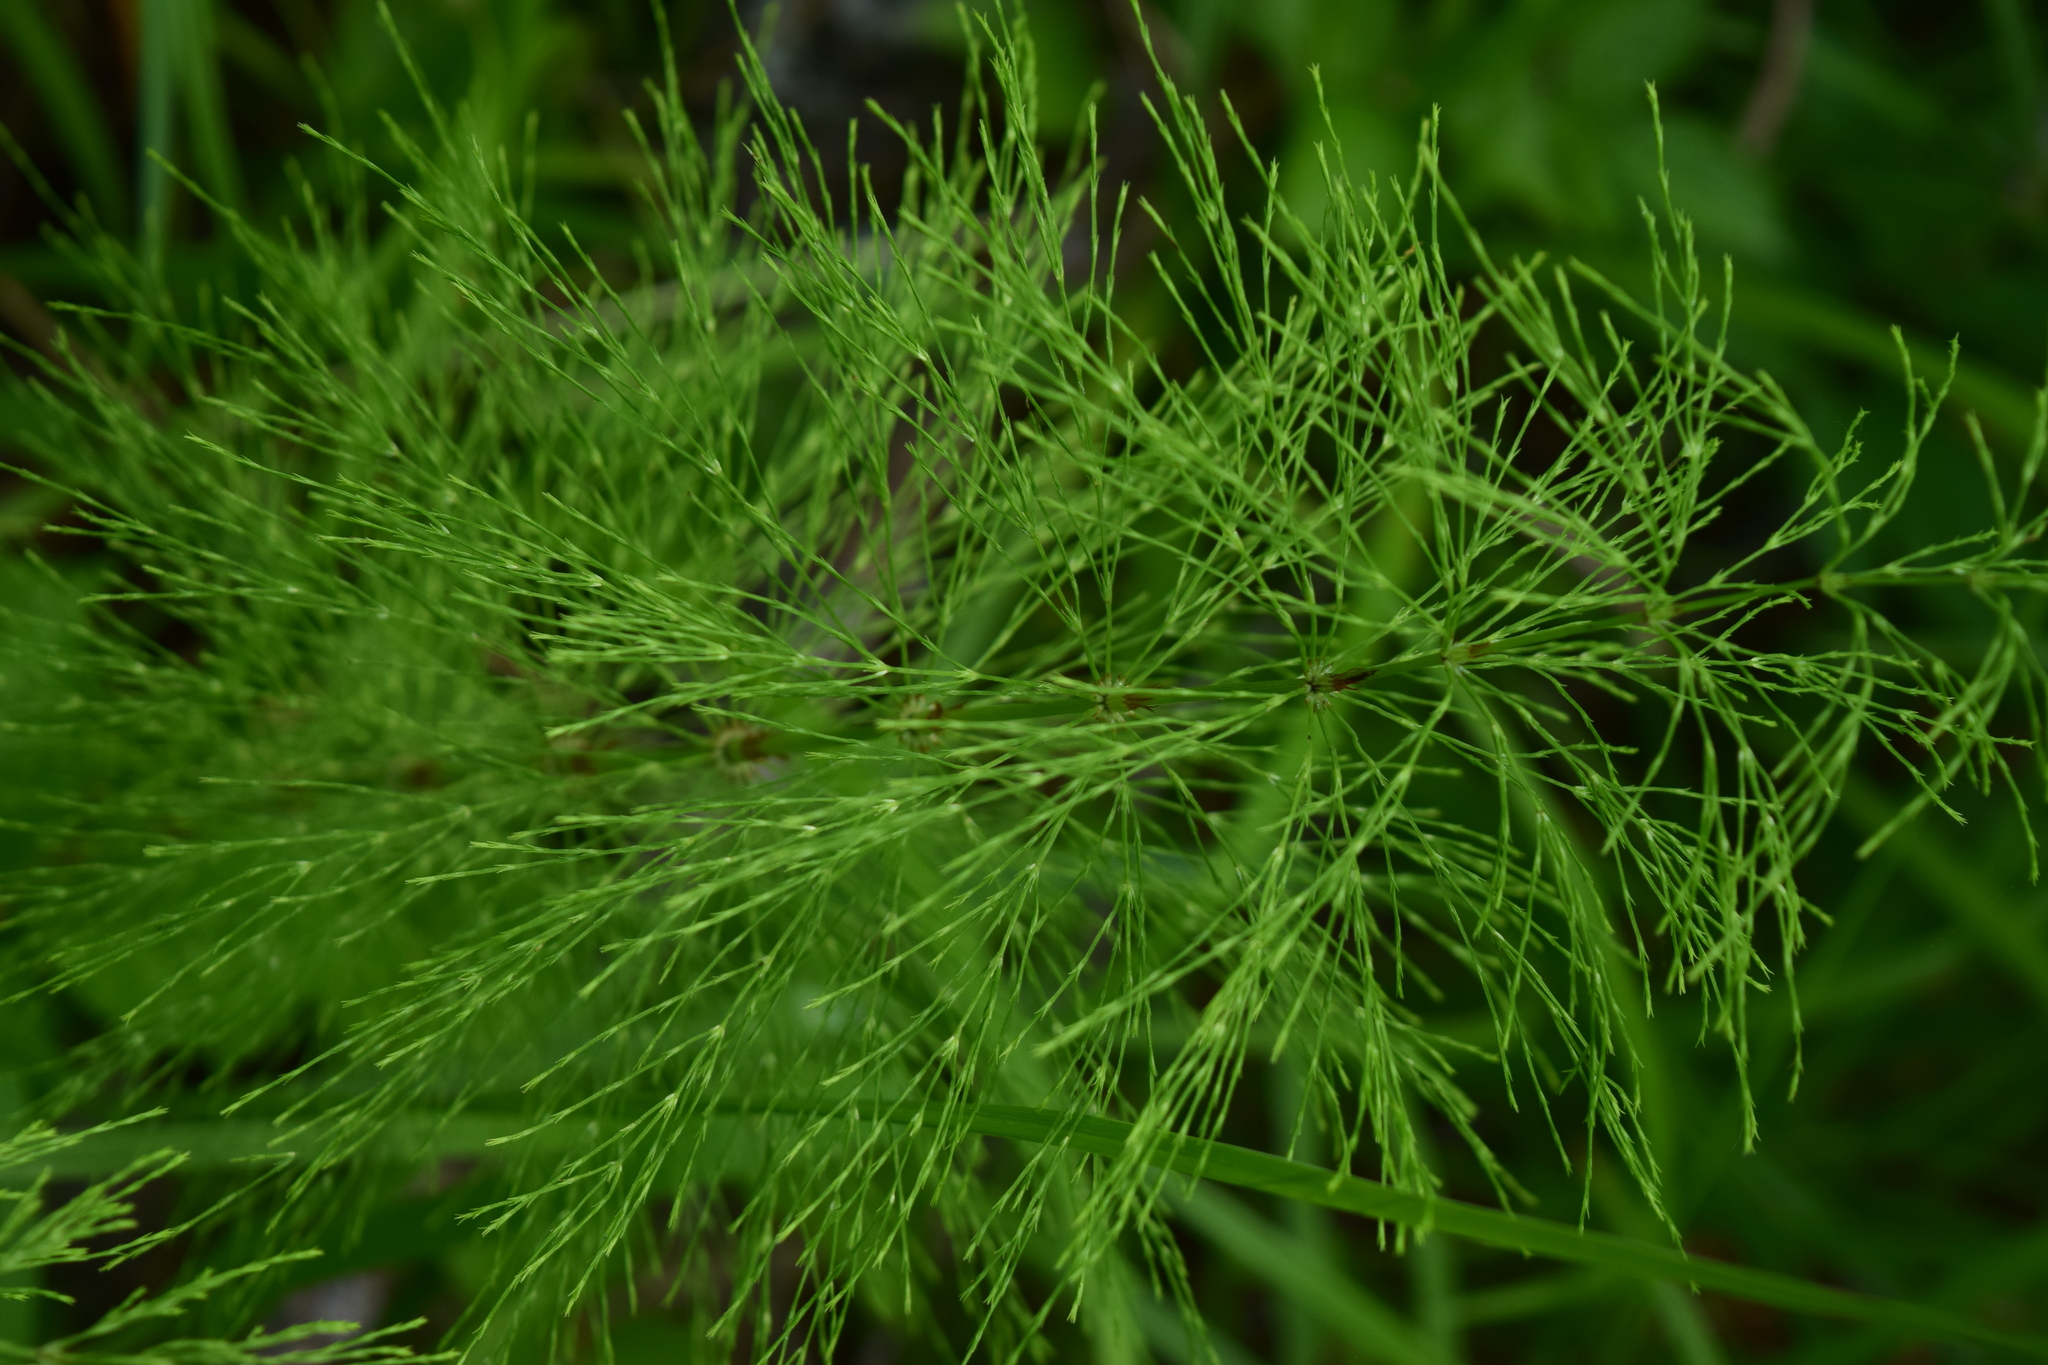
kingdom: Plantae
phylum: Tracheophyta
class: Polypodiopsida
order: Equisetales
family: Equisetaceae
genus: Equisetum
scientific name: Equisetum sylvaticum
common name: Wood horsetail
